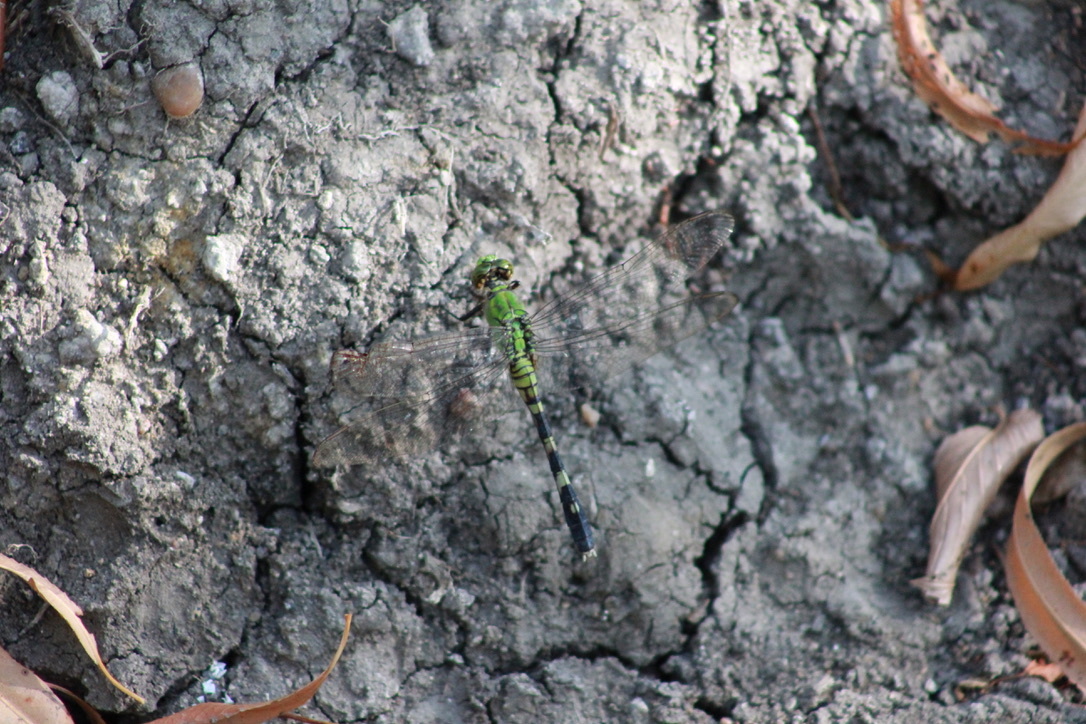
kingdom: Animalia
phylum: Arthropoda
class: Insecta
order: Odonata
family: Libellulidae
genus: Erythemis
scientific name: Erythemis simplicicollis
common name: Eastern pondhawk
